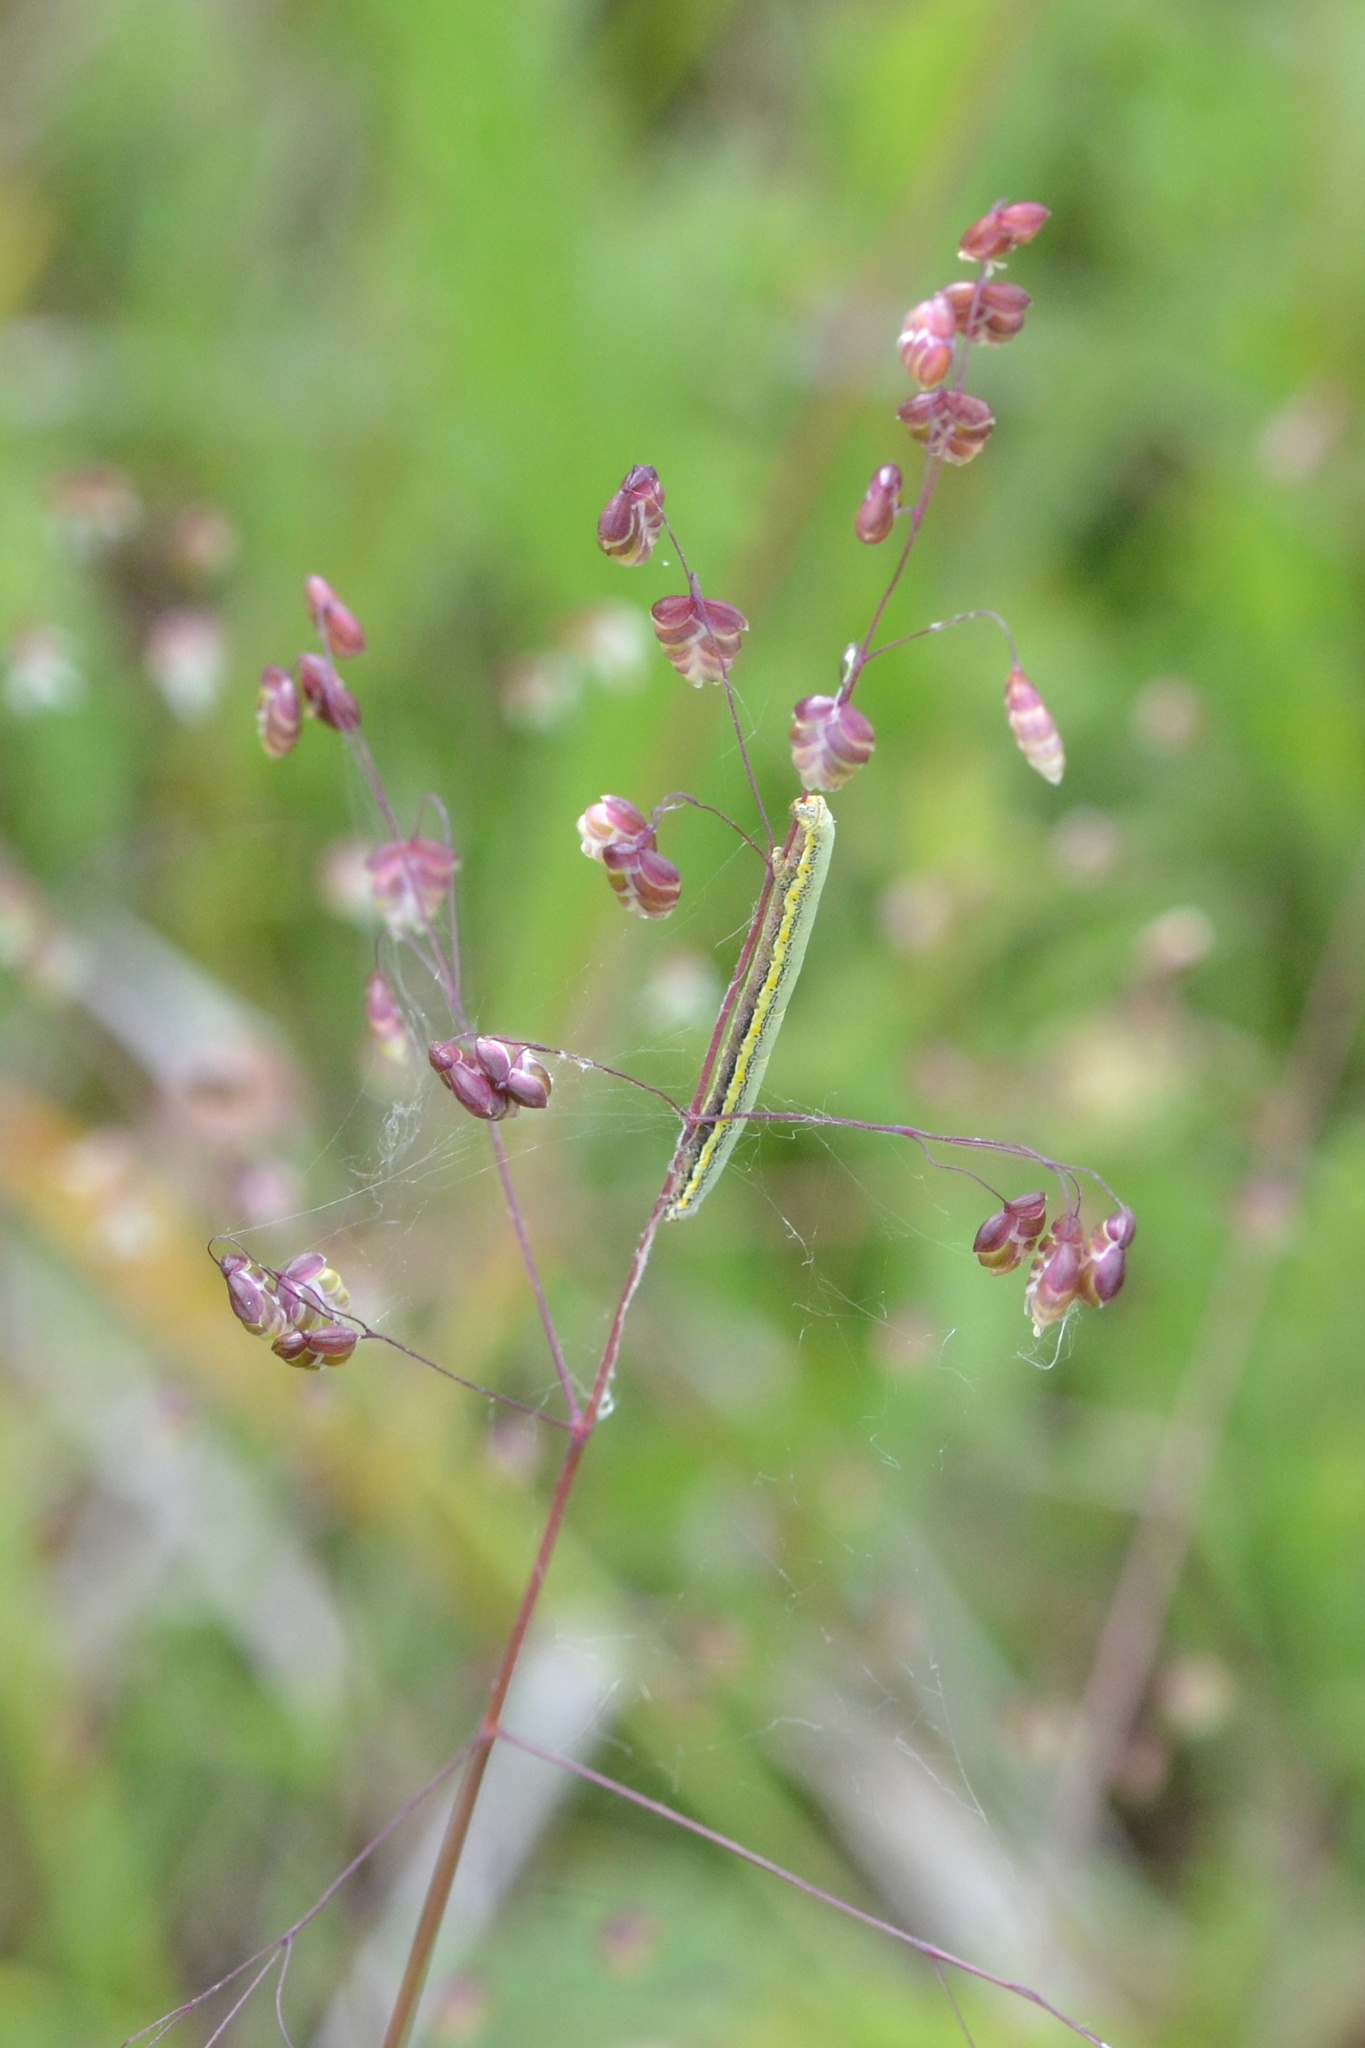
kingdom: Plantae
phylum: Tracheophyta
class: Liliopsida
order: Poales
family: Poaceae
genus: Briza
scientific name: Briza media
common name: Quaking grass
